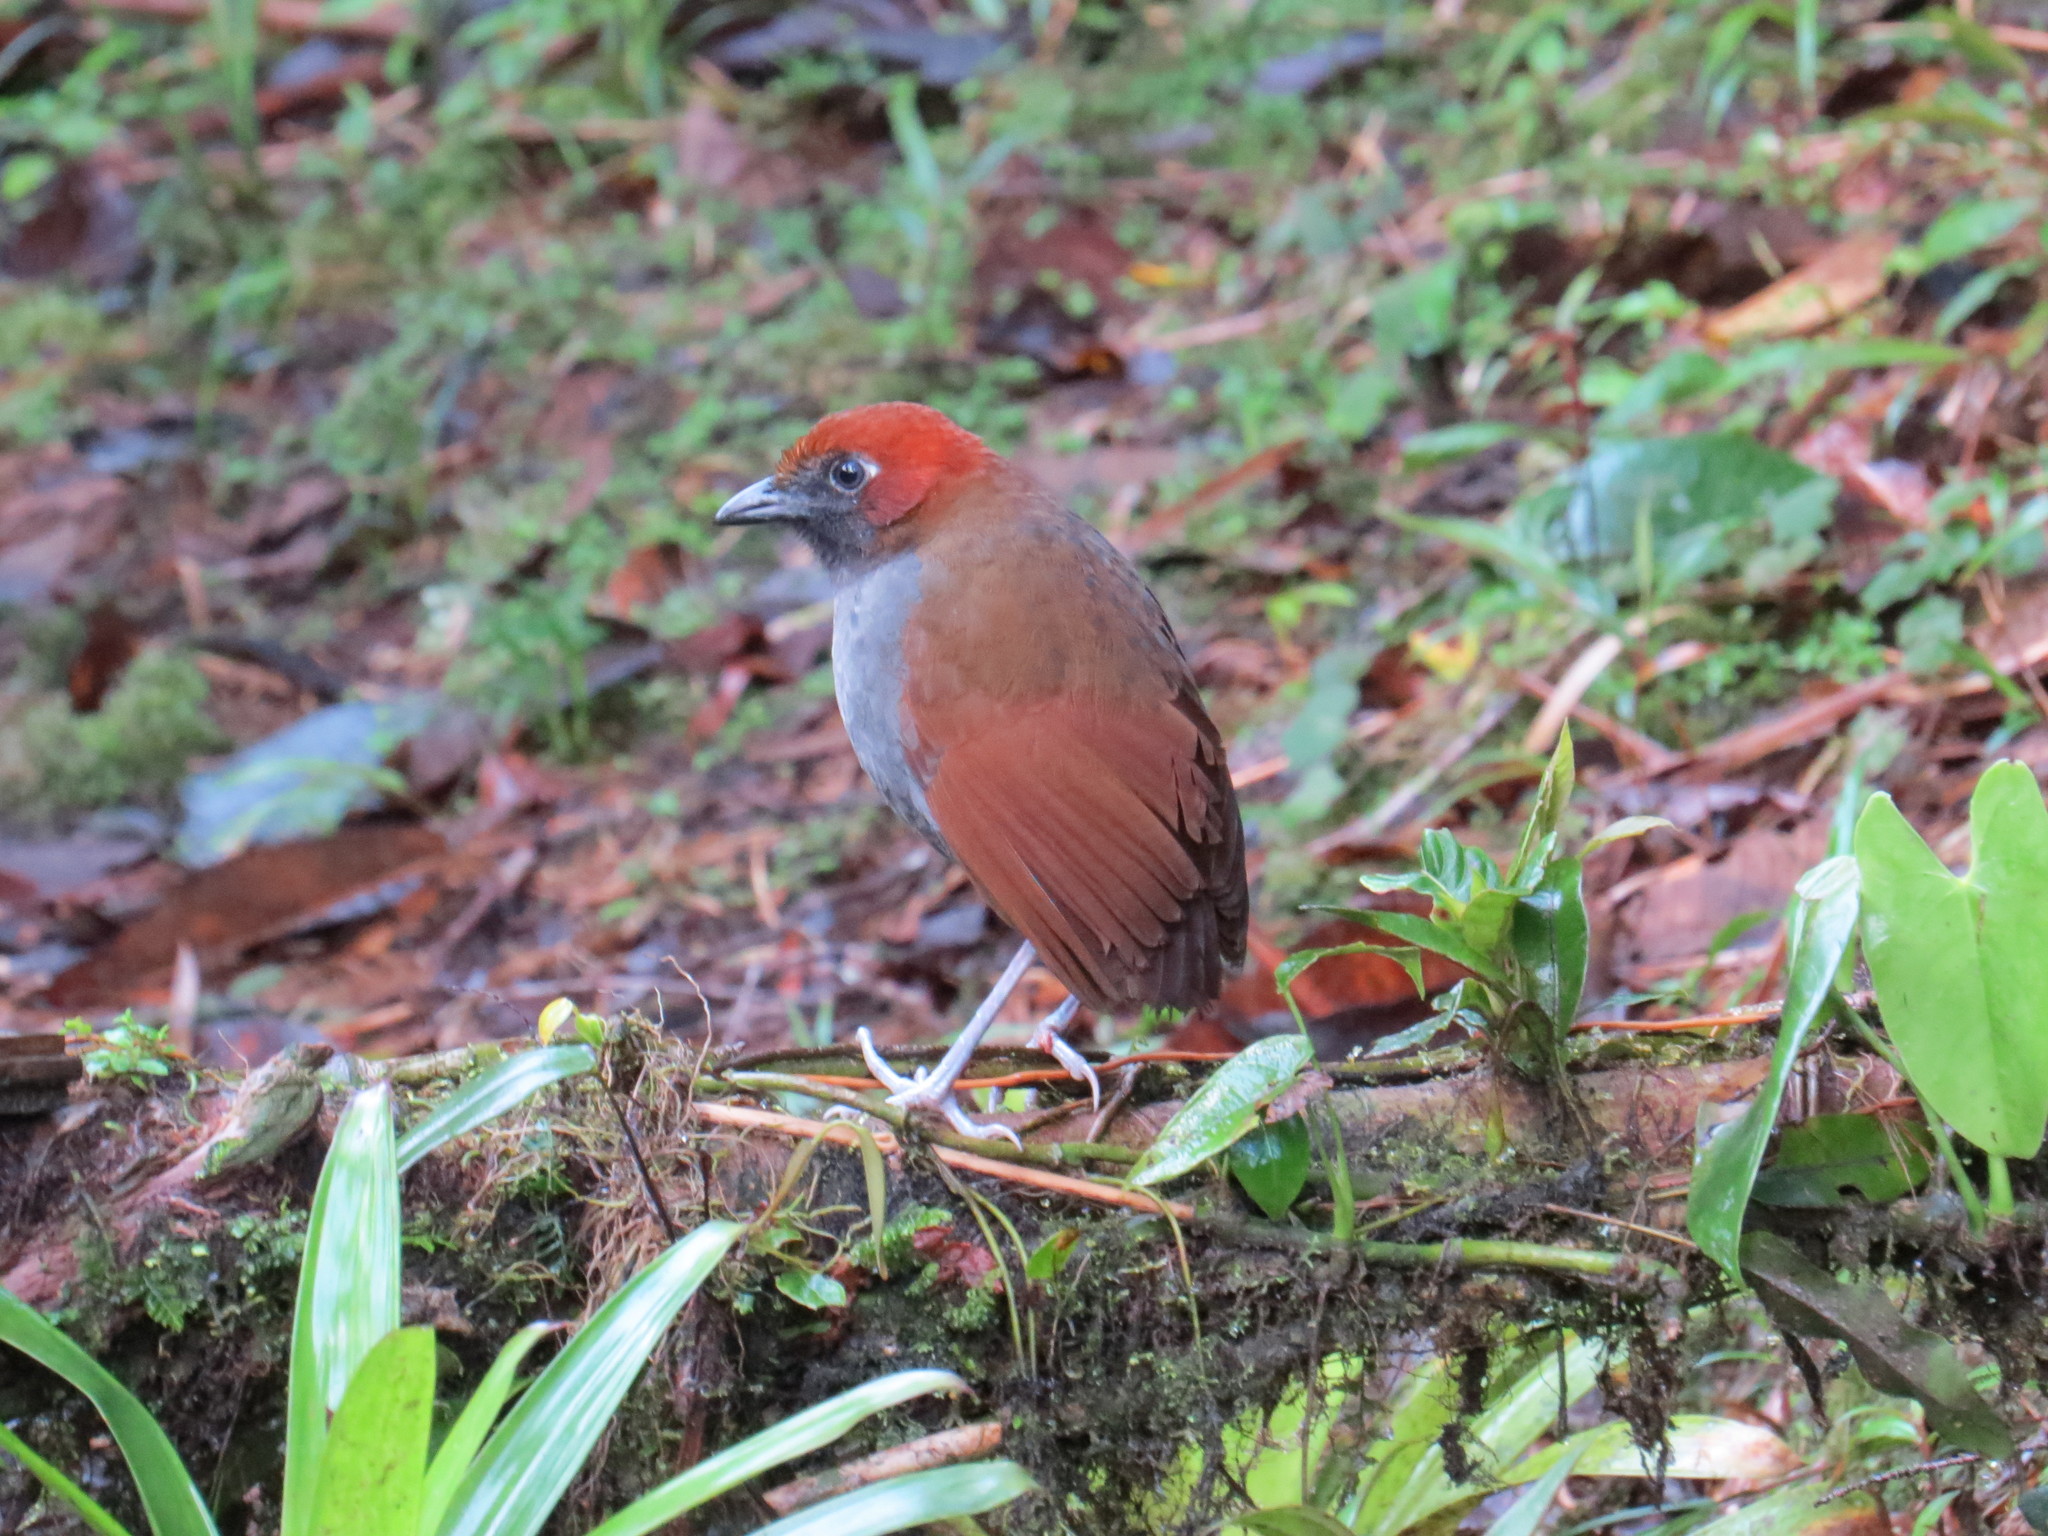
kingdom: Animalia
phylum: Chordata
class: Aves
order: Passeriformes
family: Grallariidae
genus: Grallaria
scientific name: Grallaria nuchalis
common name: Chestnut-naped antpitta
